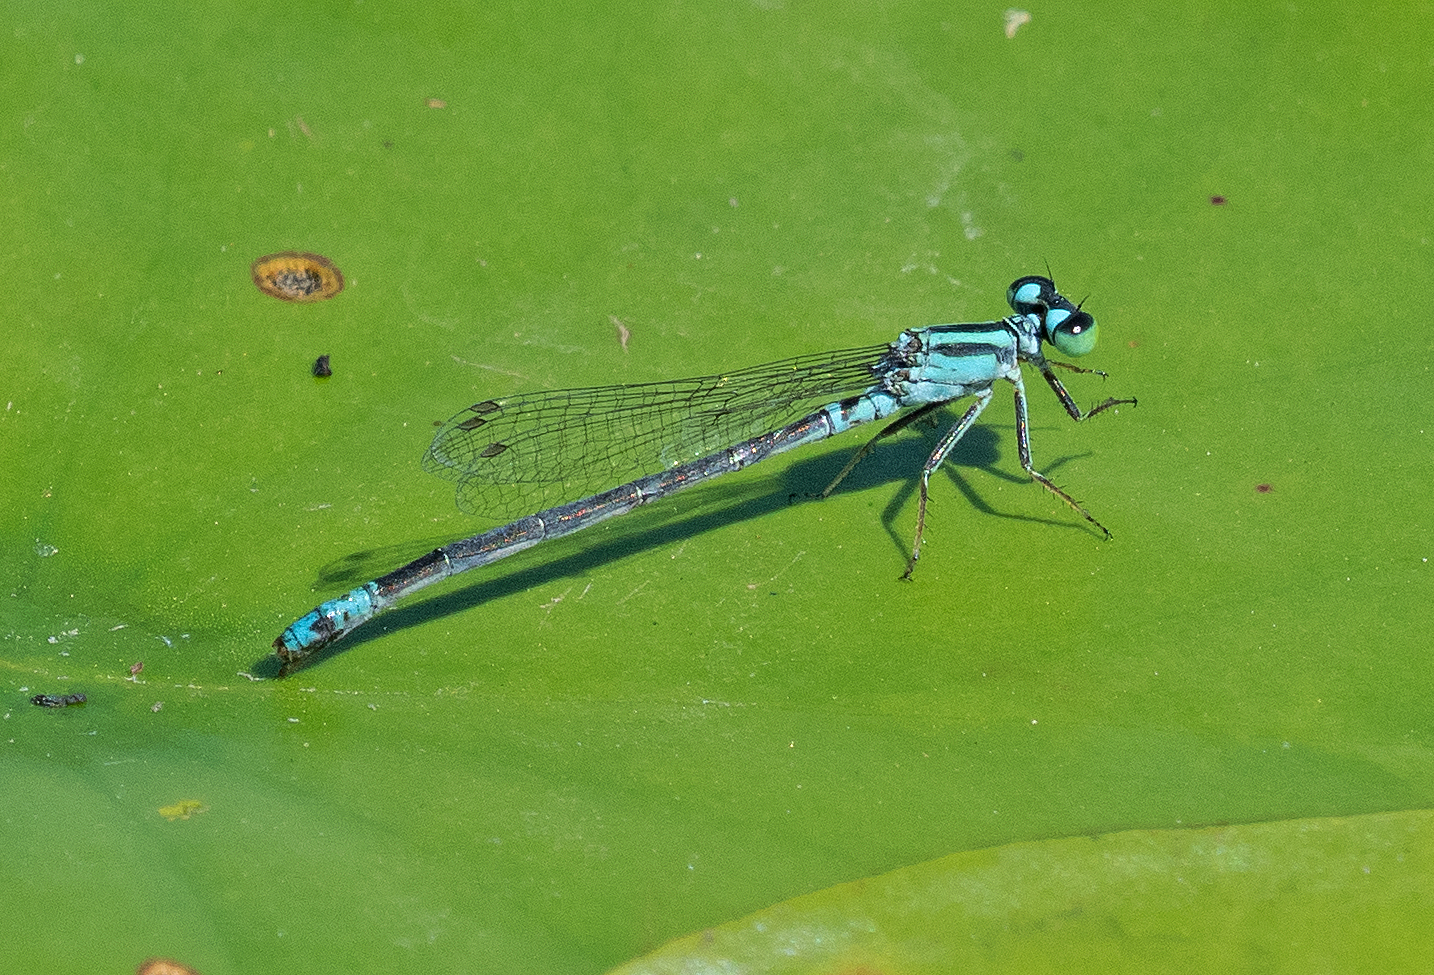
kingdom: Animalia
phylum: Arthropoda
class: Insecta
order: Odonata
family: Coenagrionidae
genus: Ischnura
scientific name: Ischnura kellicotti
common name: Lilypad forktail
